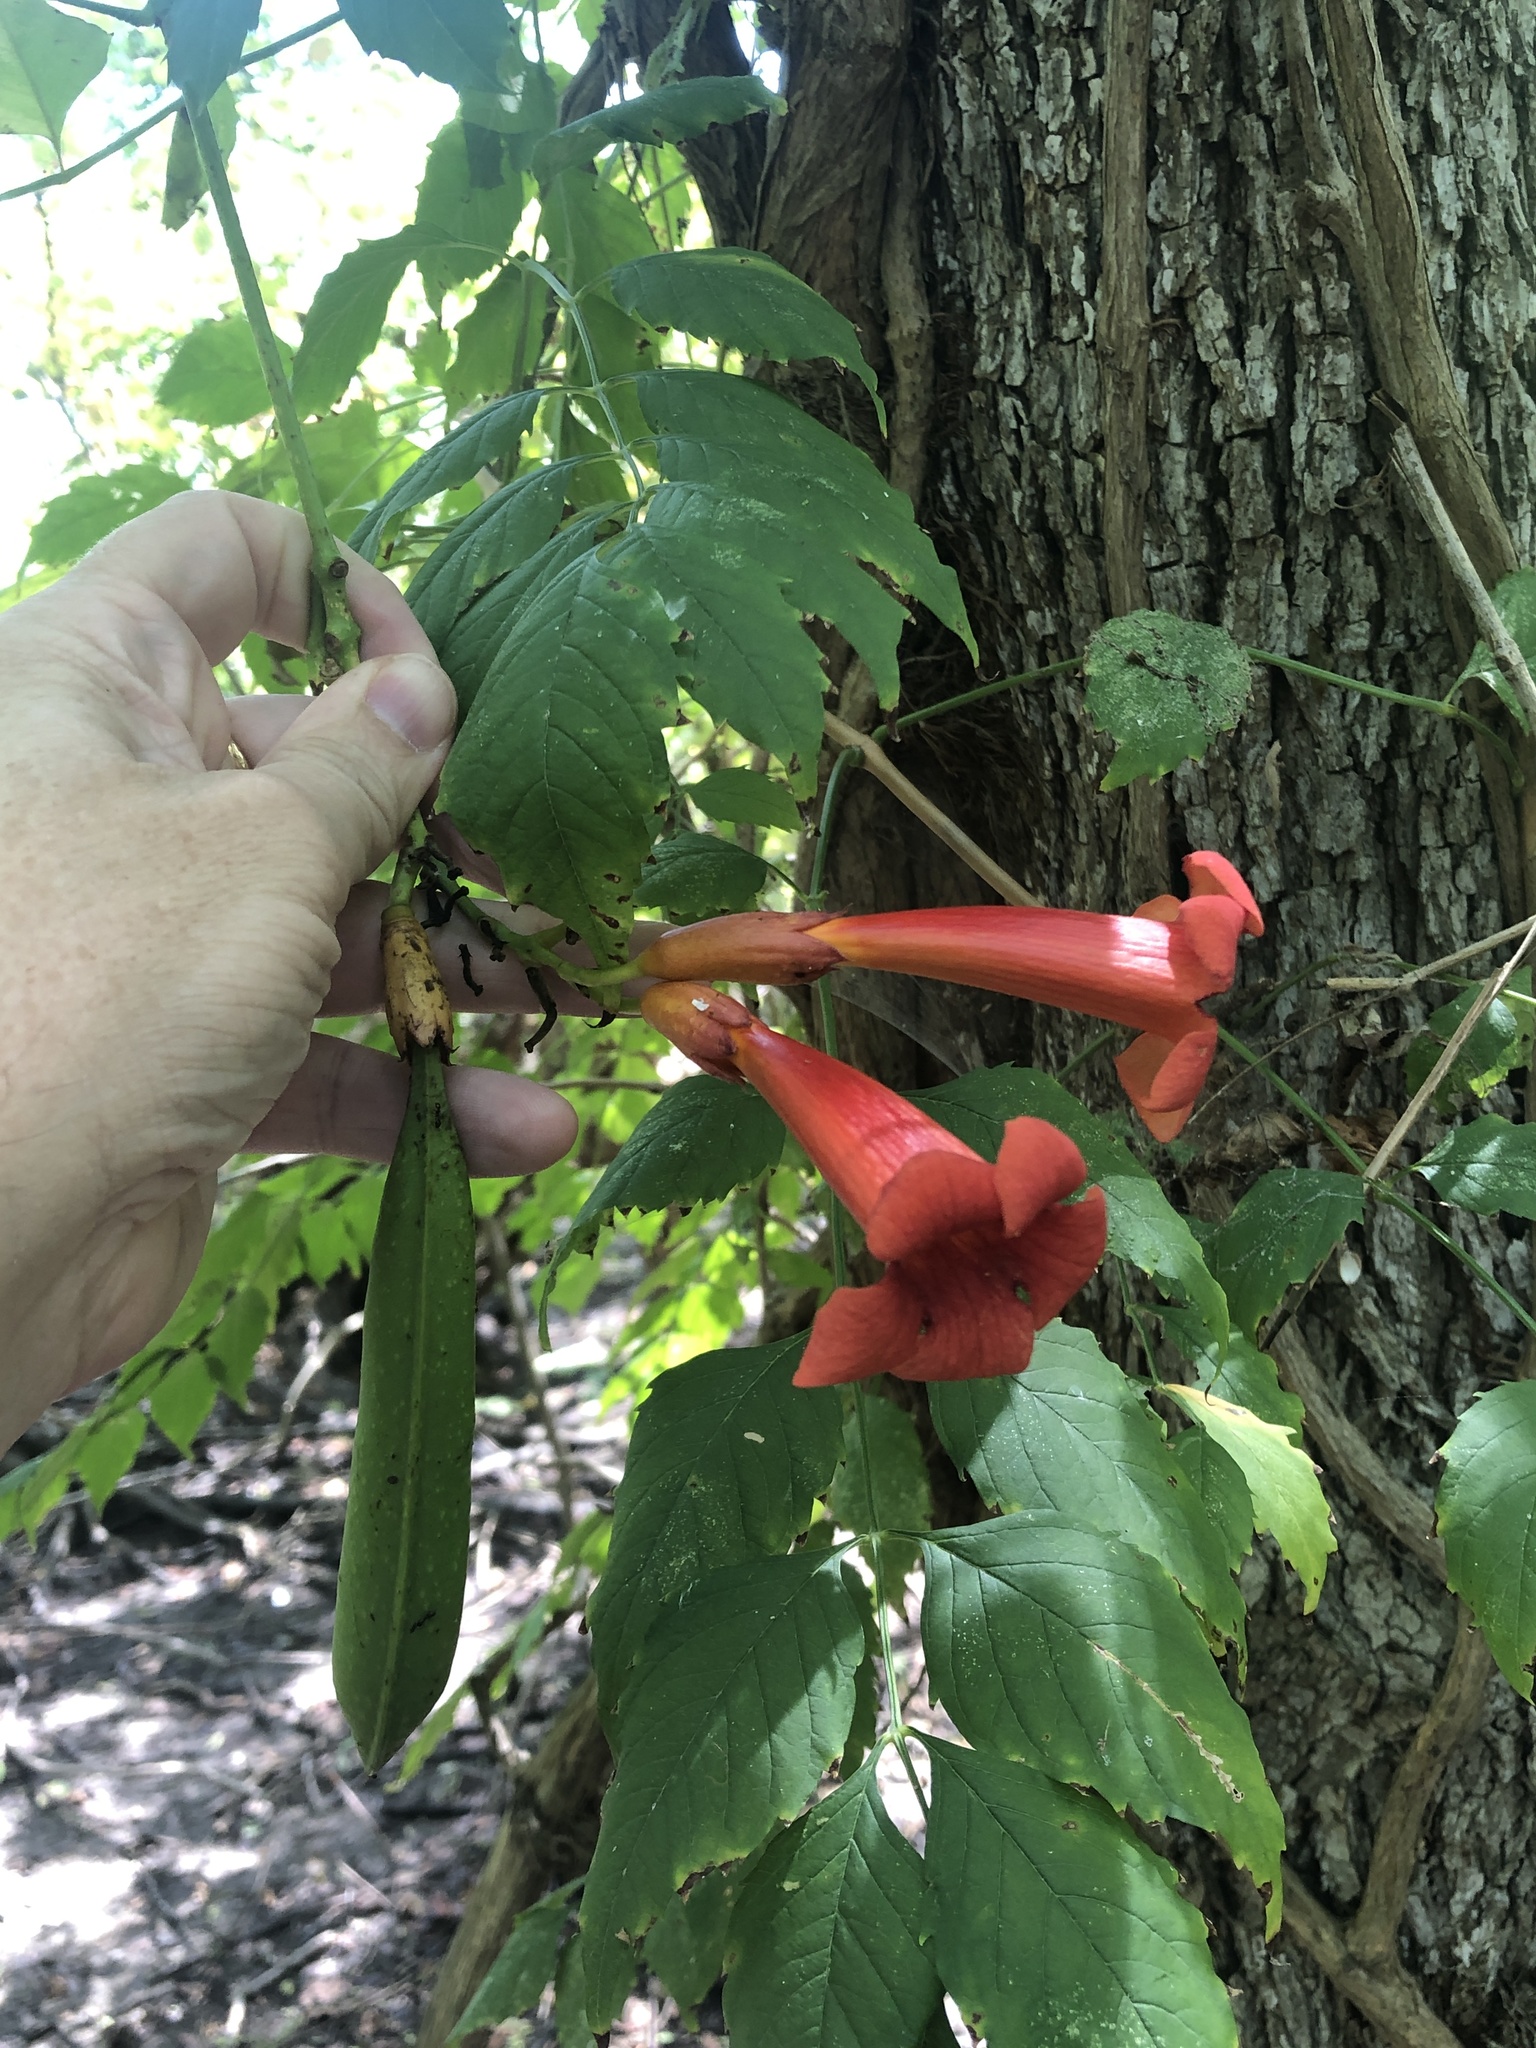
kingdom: Plantae
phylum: Tracheophyta
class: Magnoliopsida
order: Lamiales
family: Bignoniaceae
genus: Campsis
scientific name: Campsis radicans
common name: Trumpet-creeper
